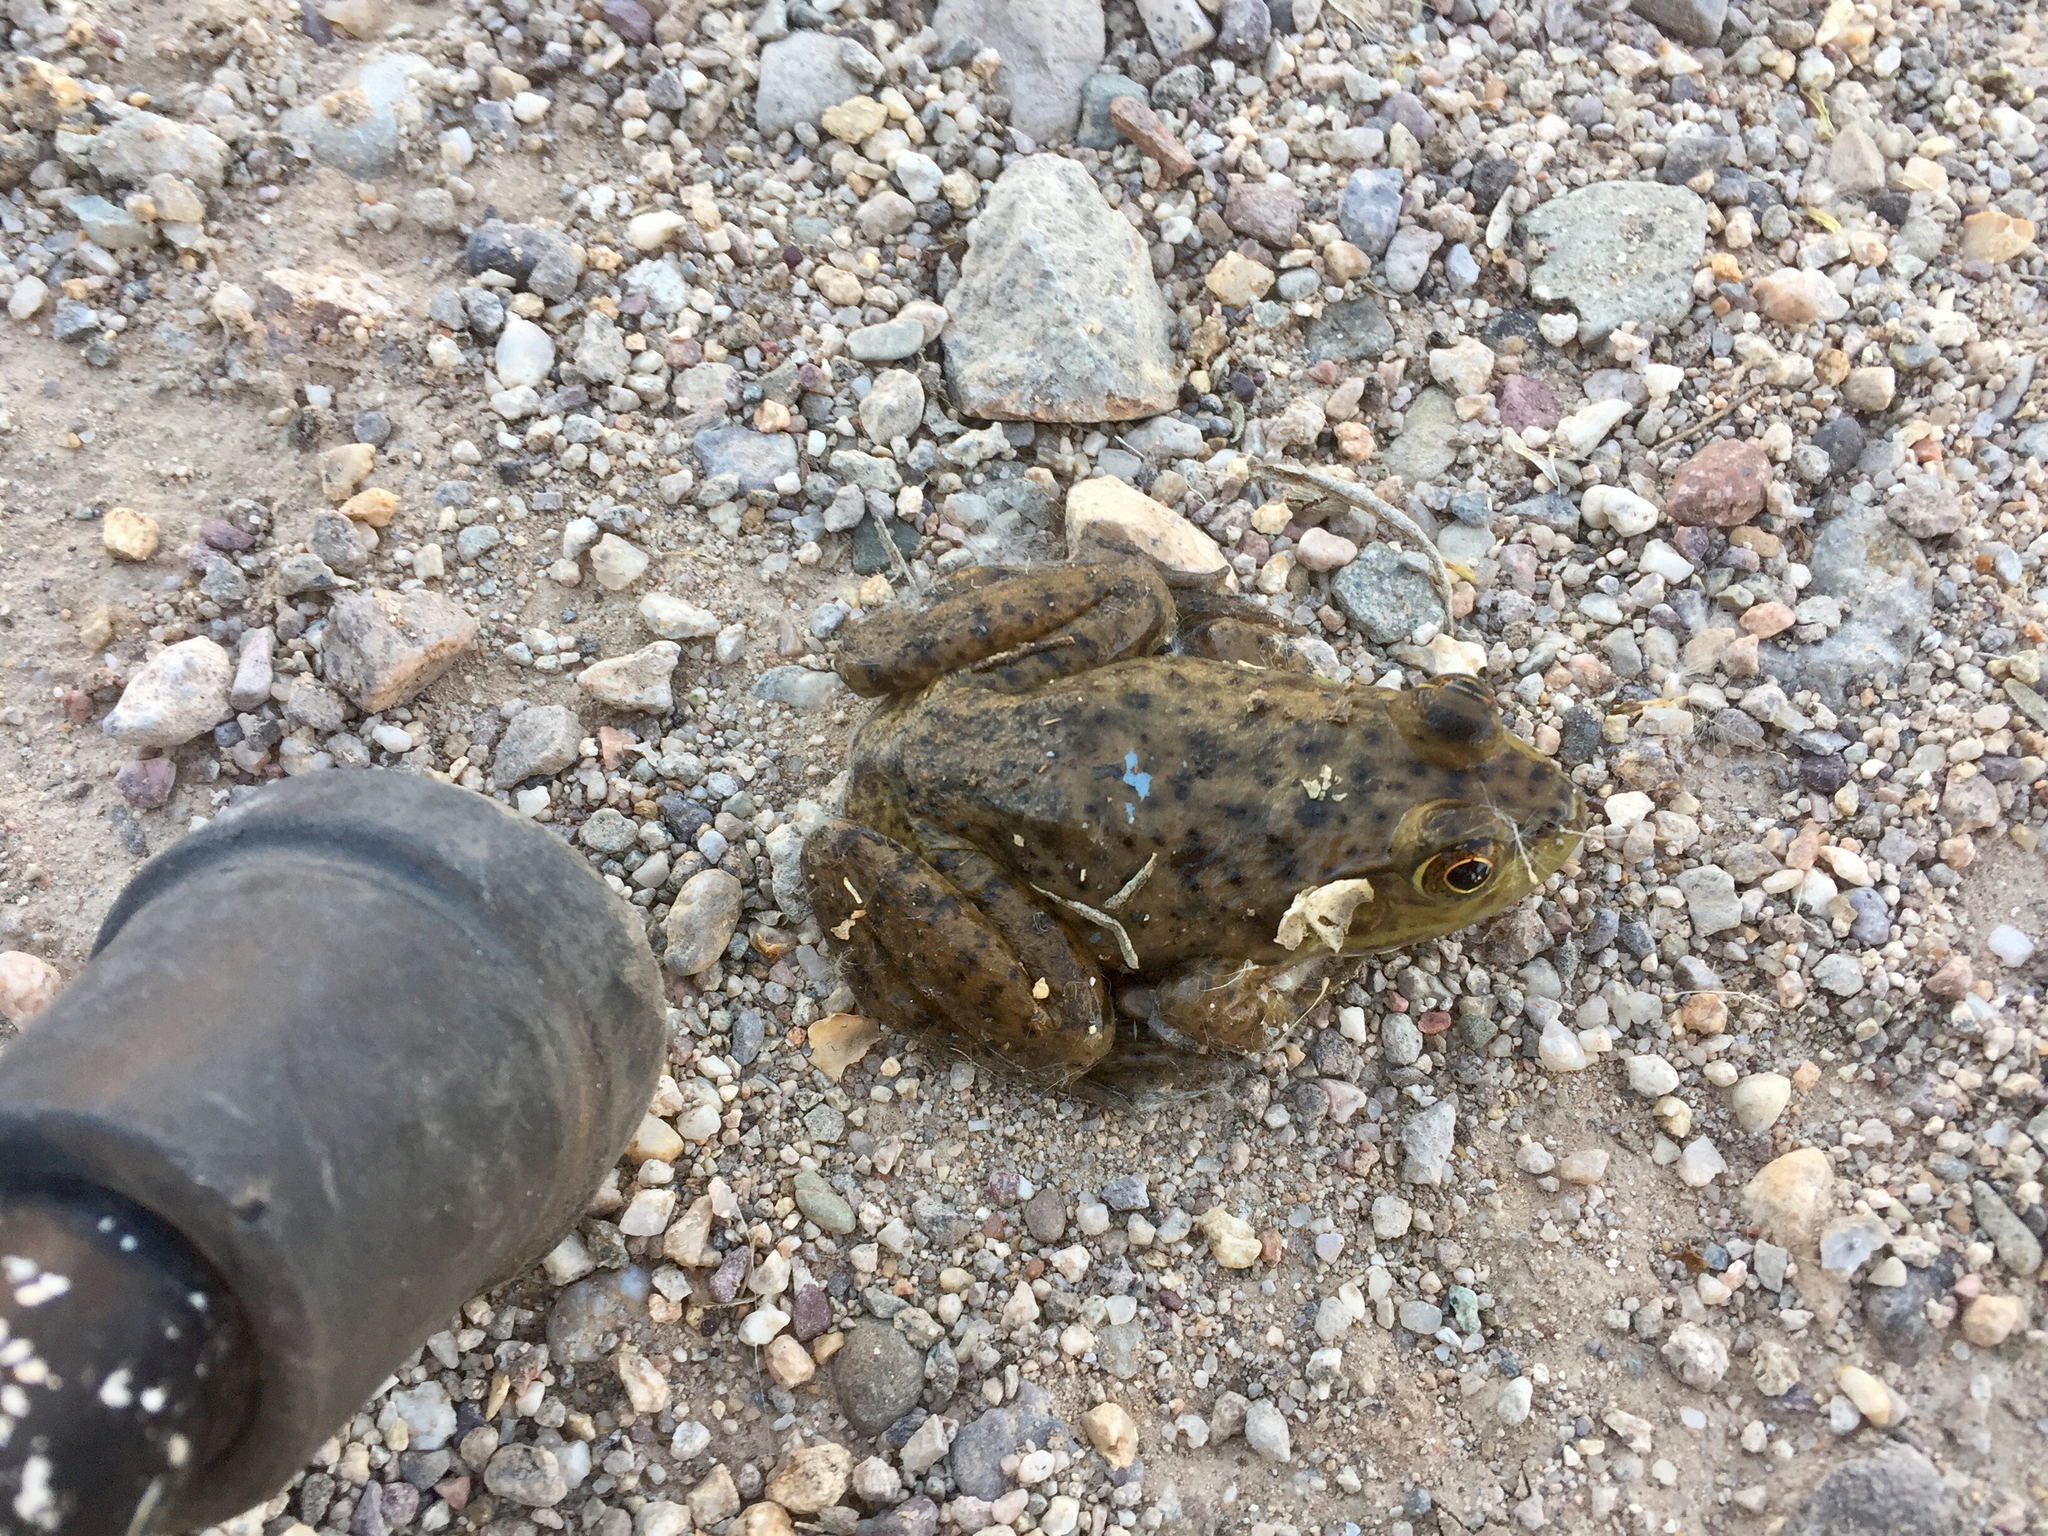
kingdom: Animalia
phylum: Chordata
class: Amphibia
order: Anura
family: Ranidae
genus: Lithobates
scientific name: Lithobates catesbeianus
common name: American bullfrog
